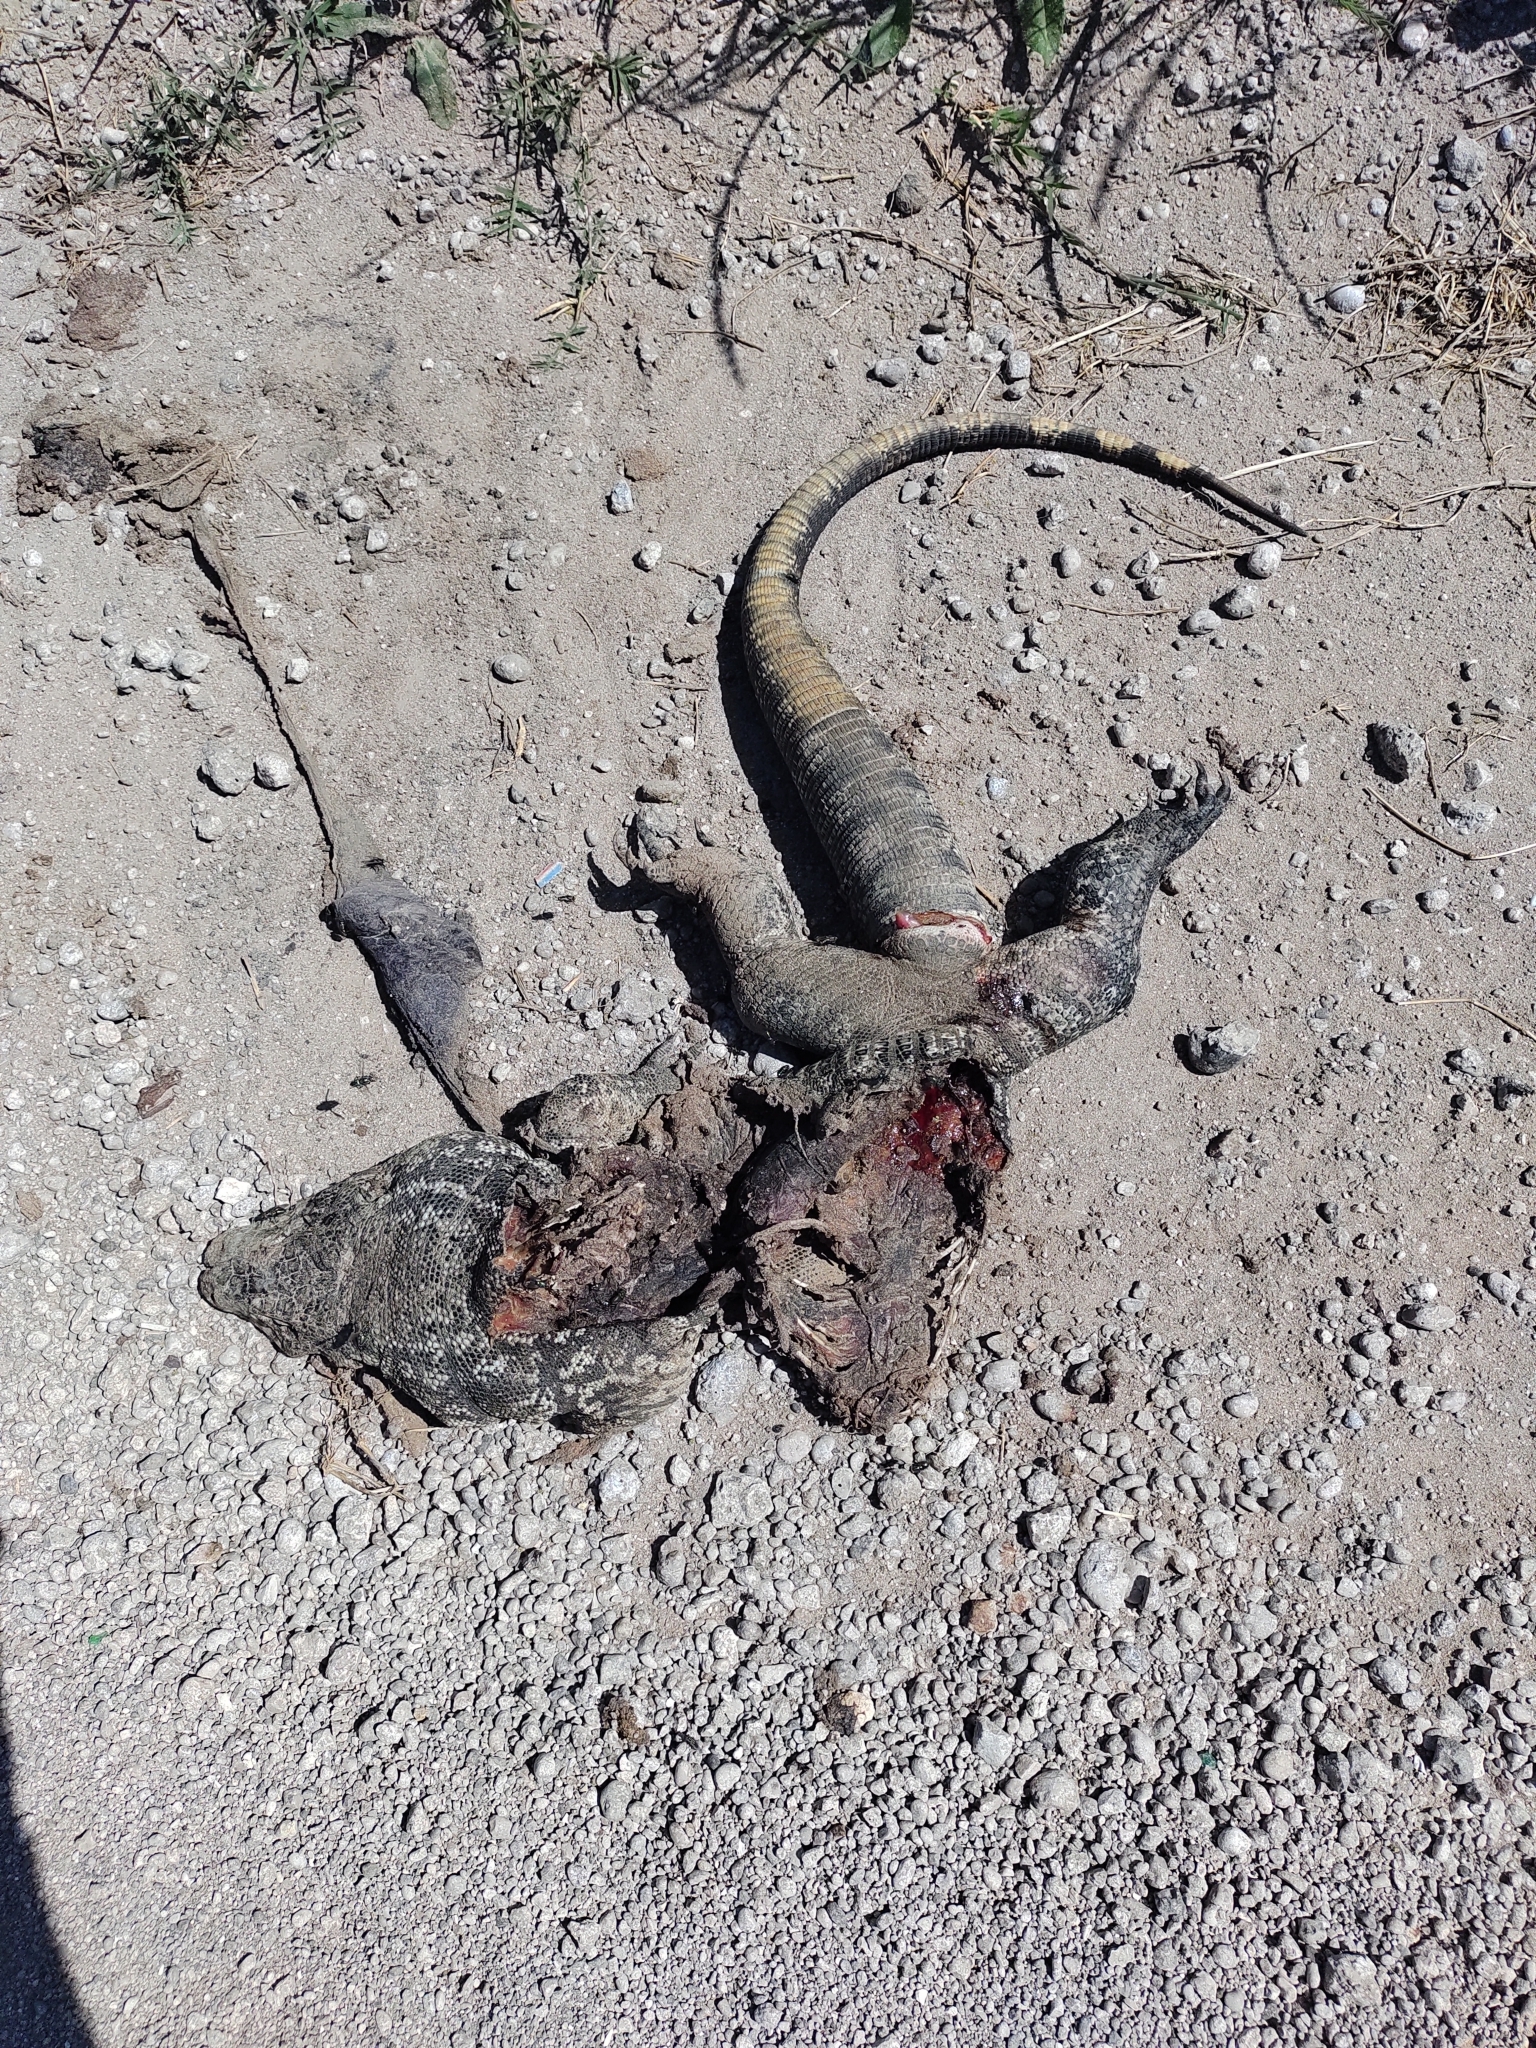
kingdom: Animalia
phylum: Chordata
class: Squamata
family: Teiidae
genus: Salvator
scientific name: Salvator merianae
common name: Argentine black and white tegu
